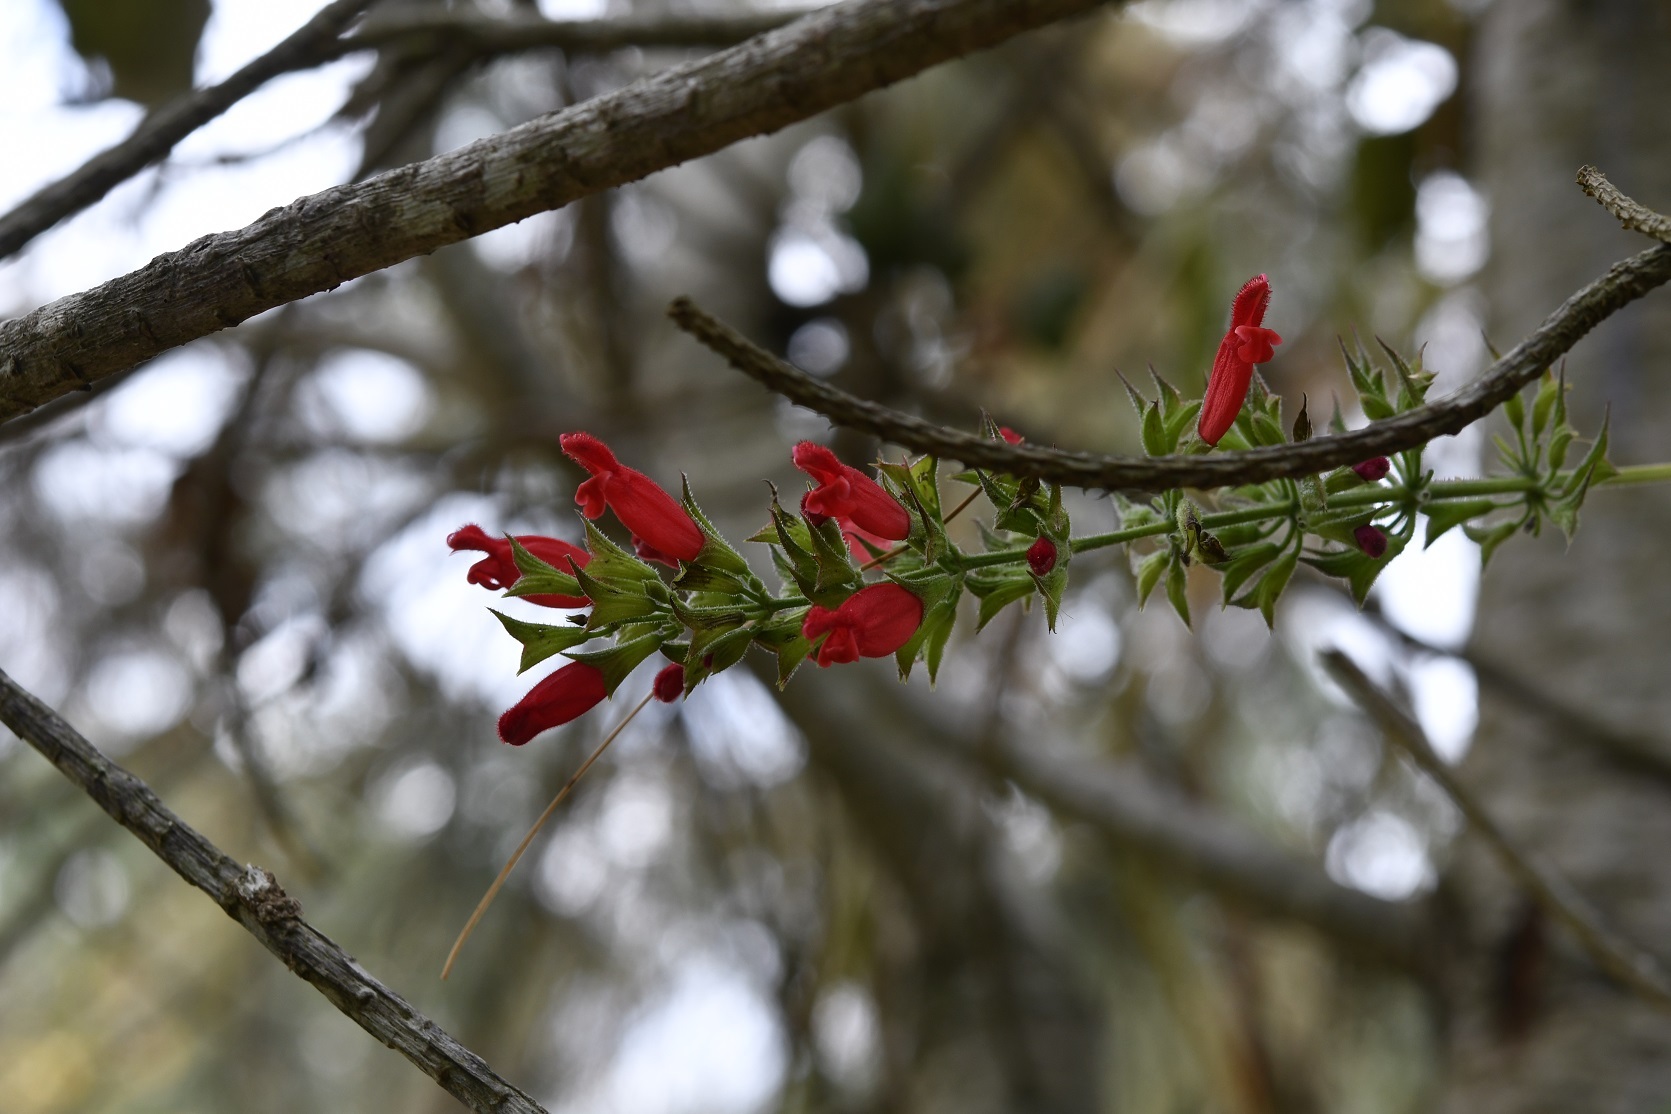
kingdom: Plantae
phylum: Tracheophyta
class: Magnoliopsida
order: Lamiales
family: Lamiaceae
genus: Salvia
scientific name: Salvia holwayi
